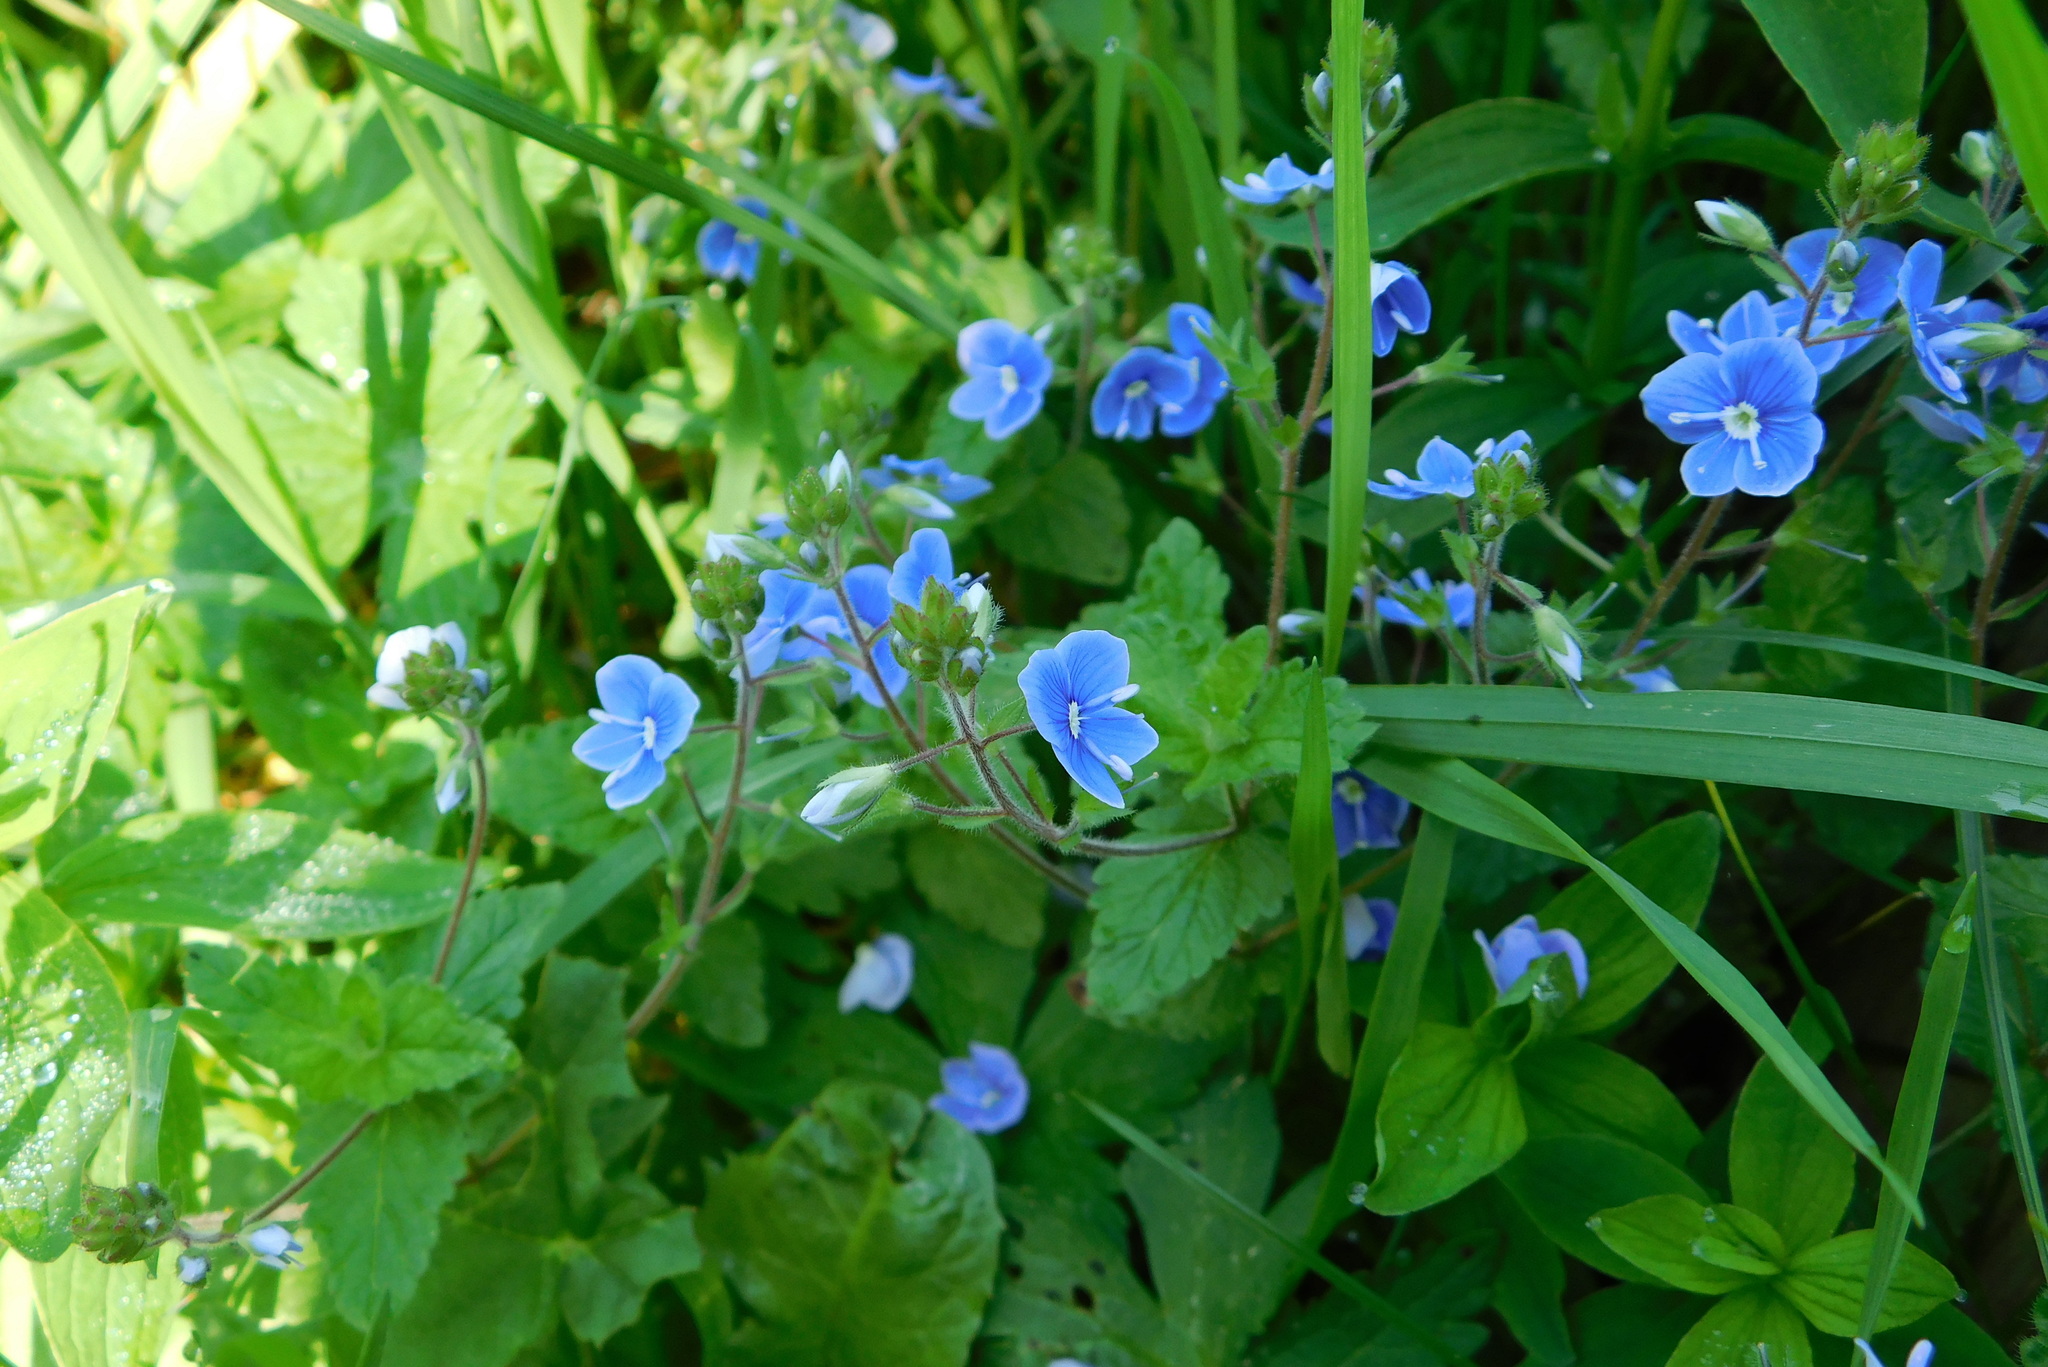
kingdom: Plantae
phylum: Tracheophyta
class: Magnoliopsida
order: Lamiales
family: Plantaginaceae
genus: Veronica
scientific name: Veronica chamaedrys
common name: Germander speedwell
